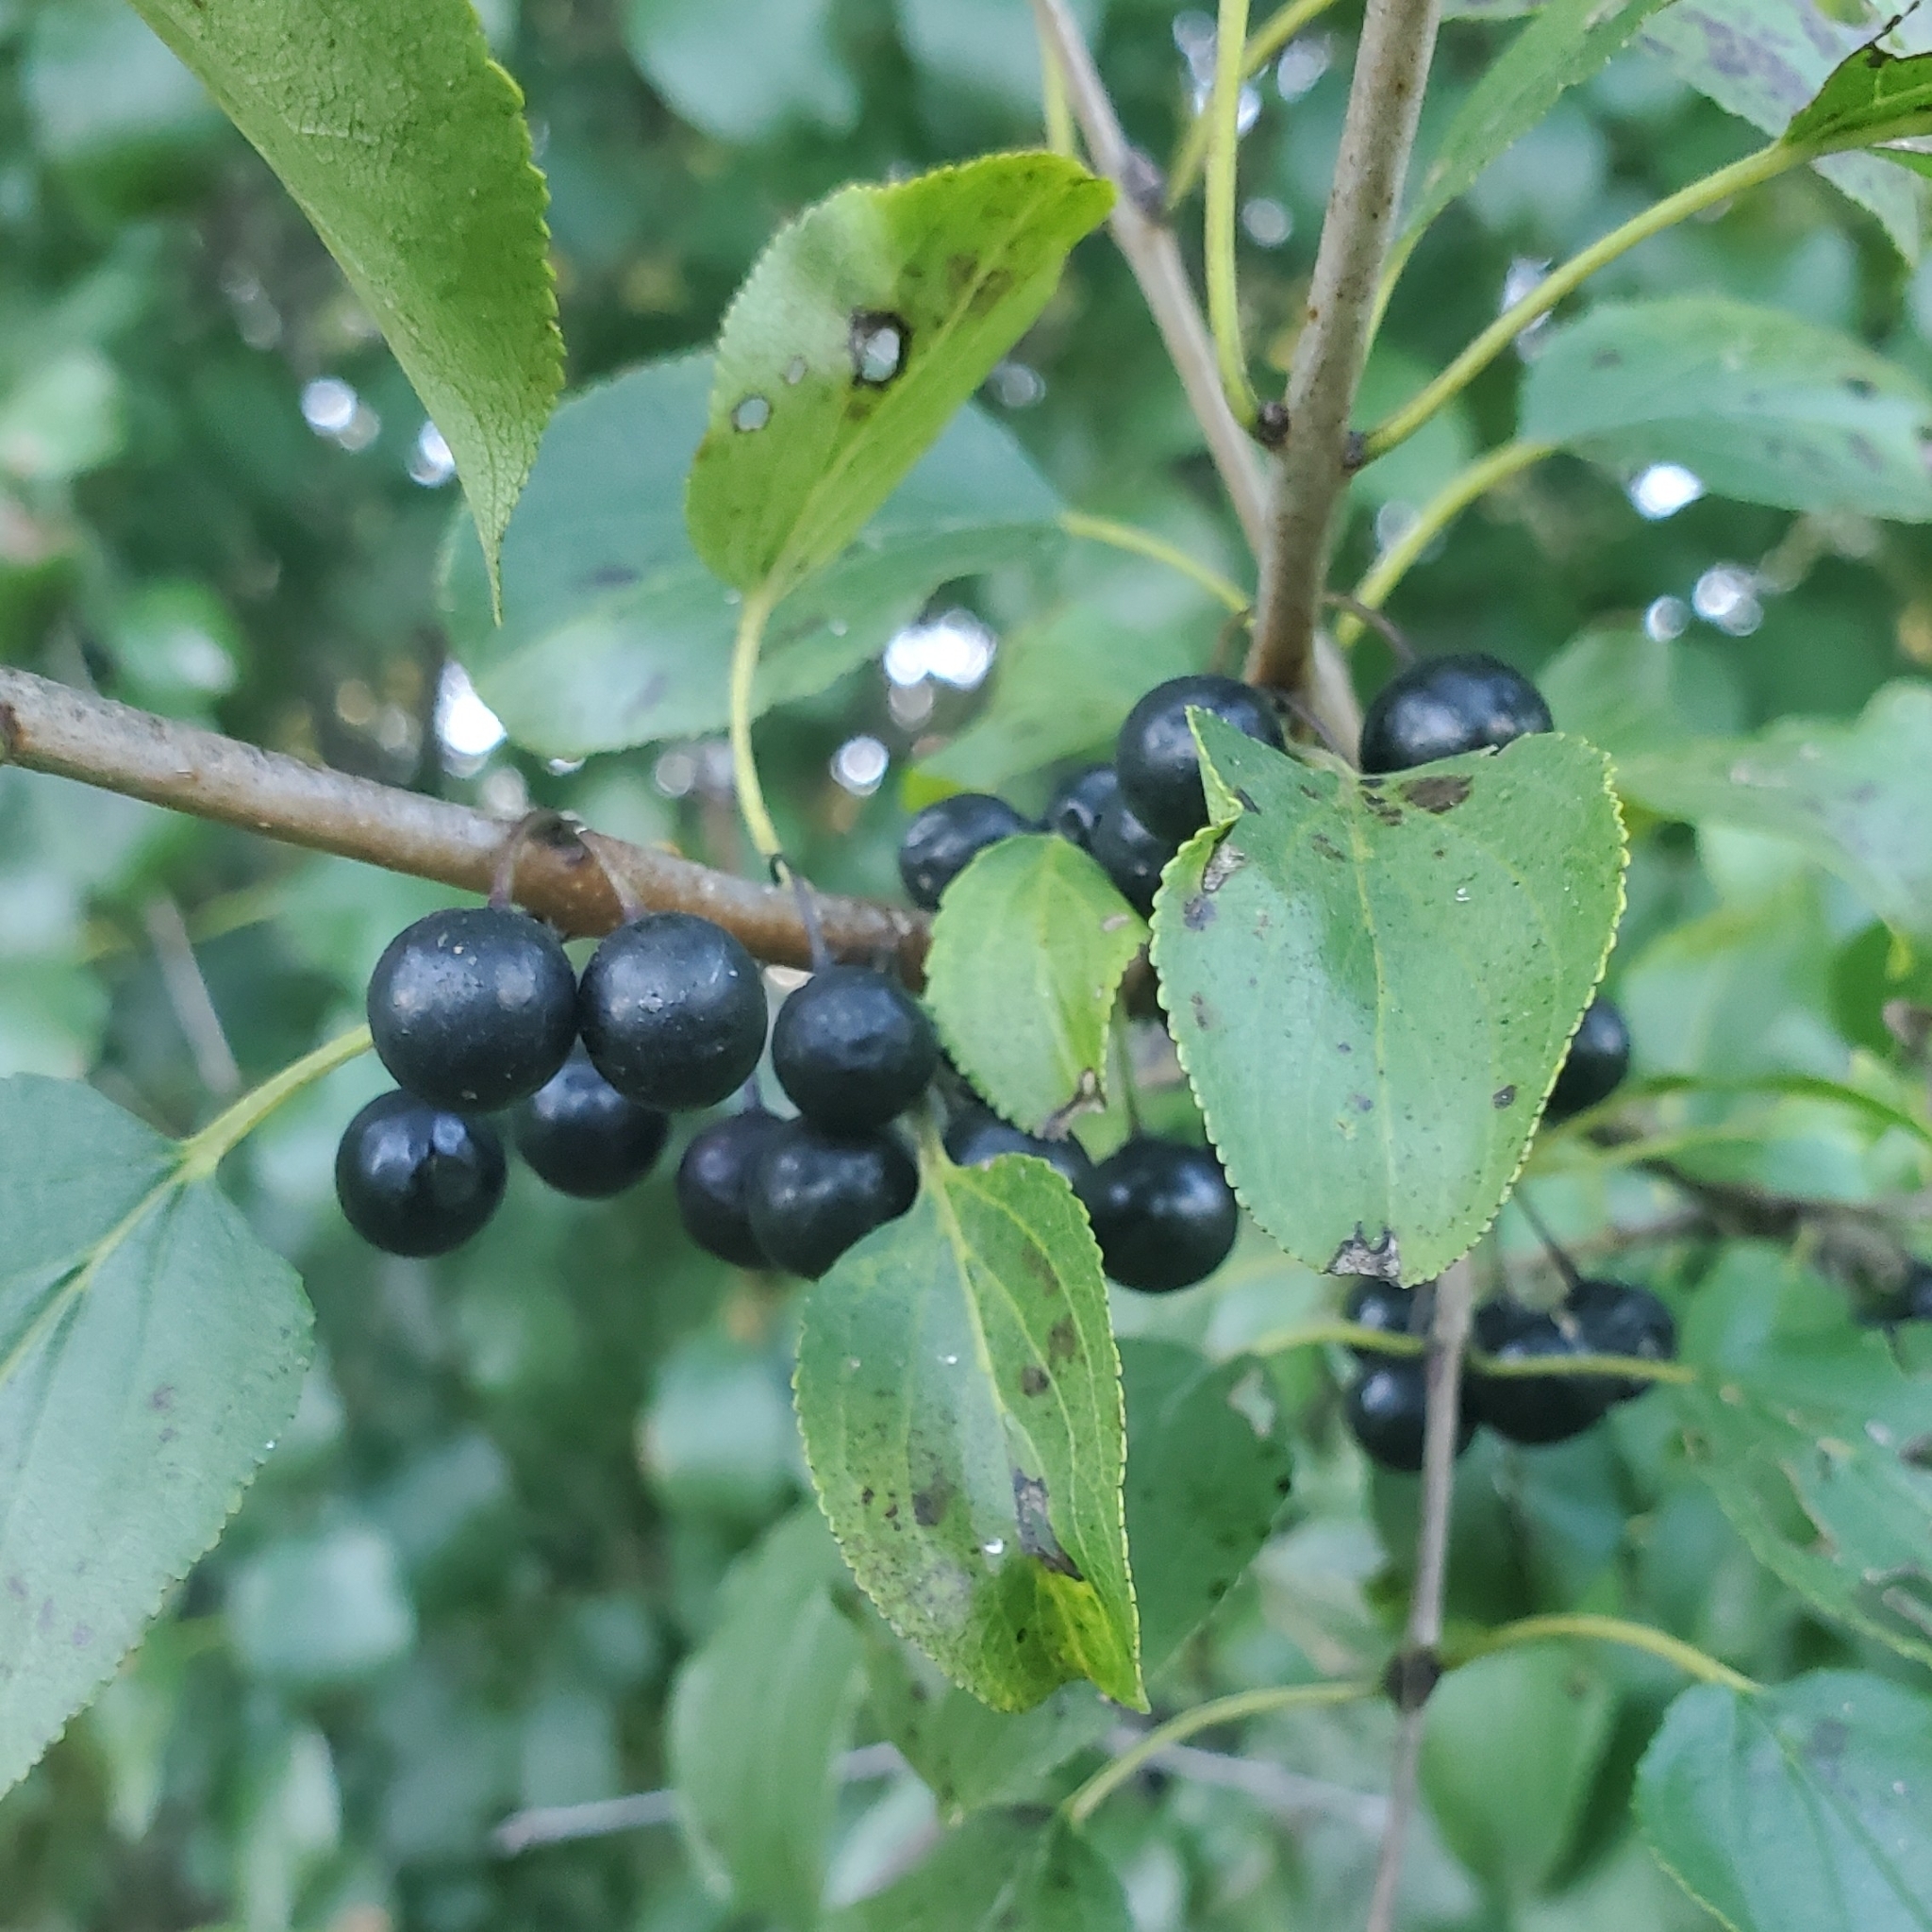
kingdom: Plantae
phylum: Tracheophyta
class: Magnoliopsida
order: Rosales
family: Rhamnaceae
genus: Rhamnus
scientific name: Rhamnus cathartica
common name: Common buckthorn
